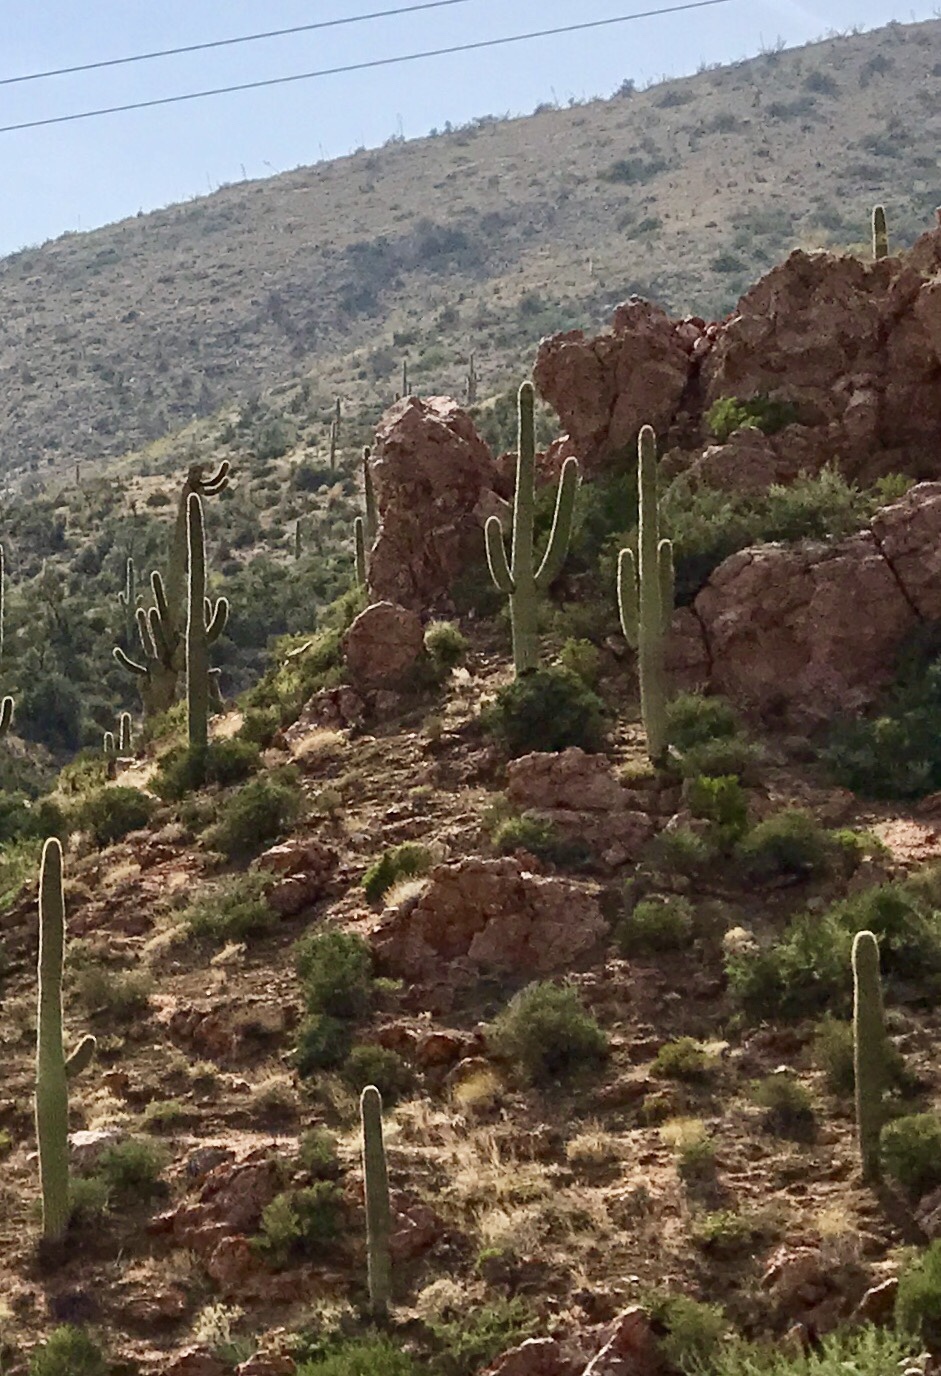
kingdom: Plantae
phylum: Tracheophyta
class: Magnoliopsida
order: Caryophyllales
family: Cactaceae
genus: Carnegiea
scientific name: Carnegiea gigantea
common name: Saguaro
